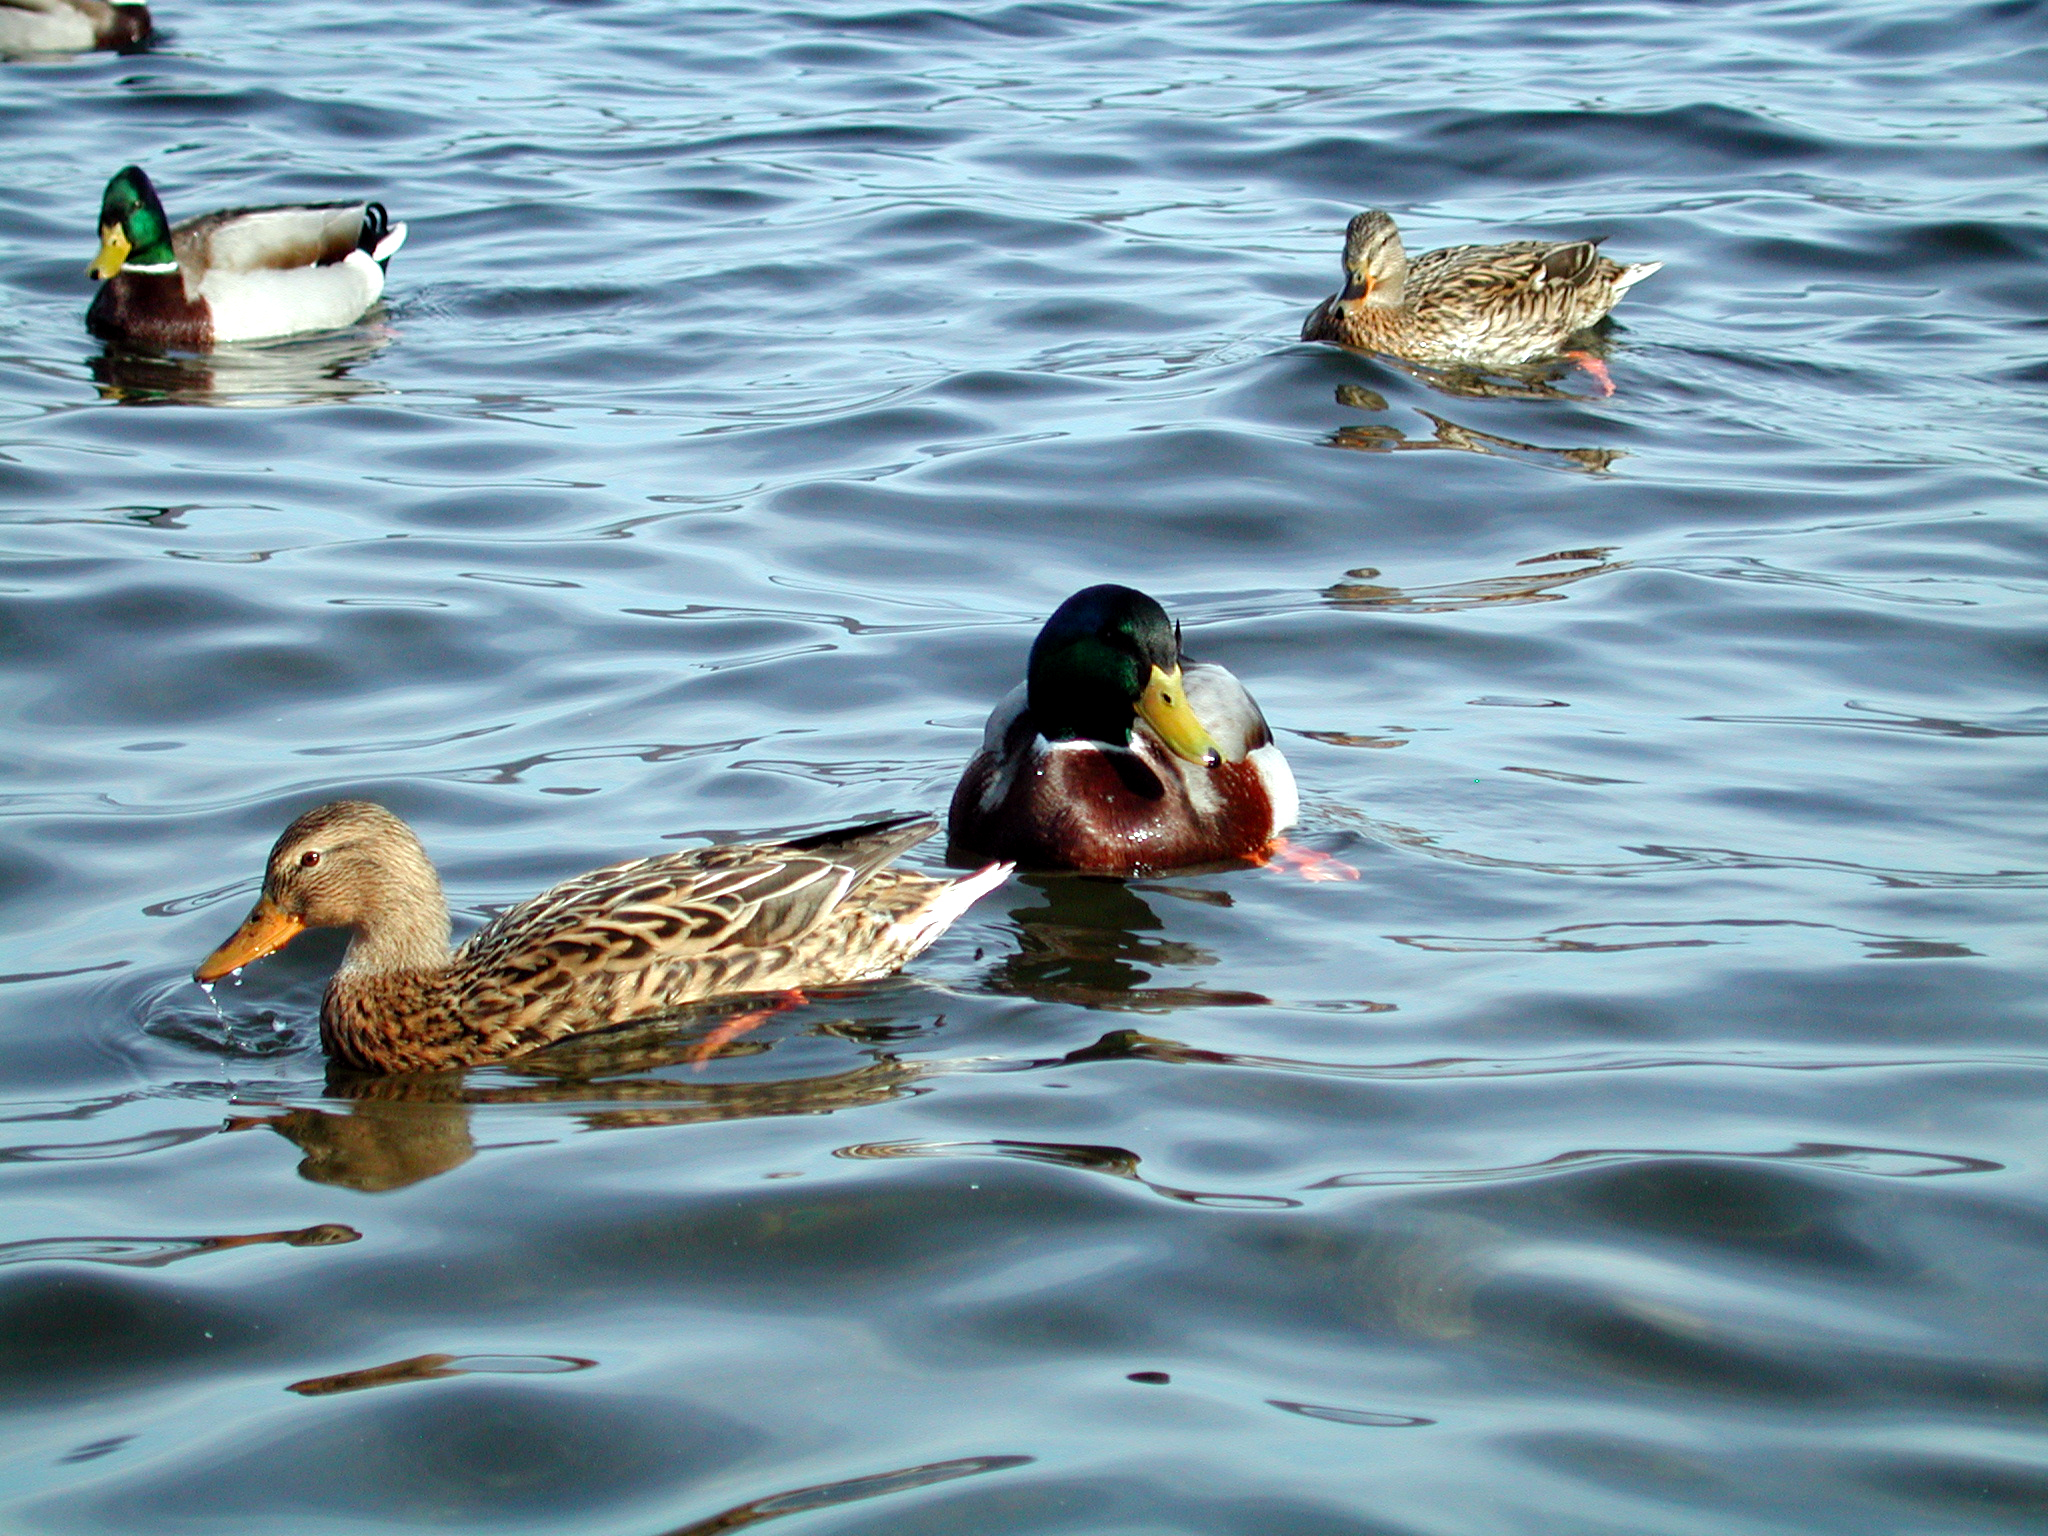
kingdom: Animalia
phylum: Chordata
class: Aves
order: Anseriformes
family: Anatidae
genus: Anas
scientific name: Anas platyrhynchos
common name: Mallard
